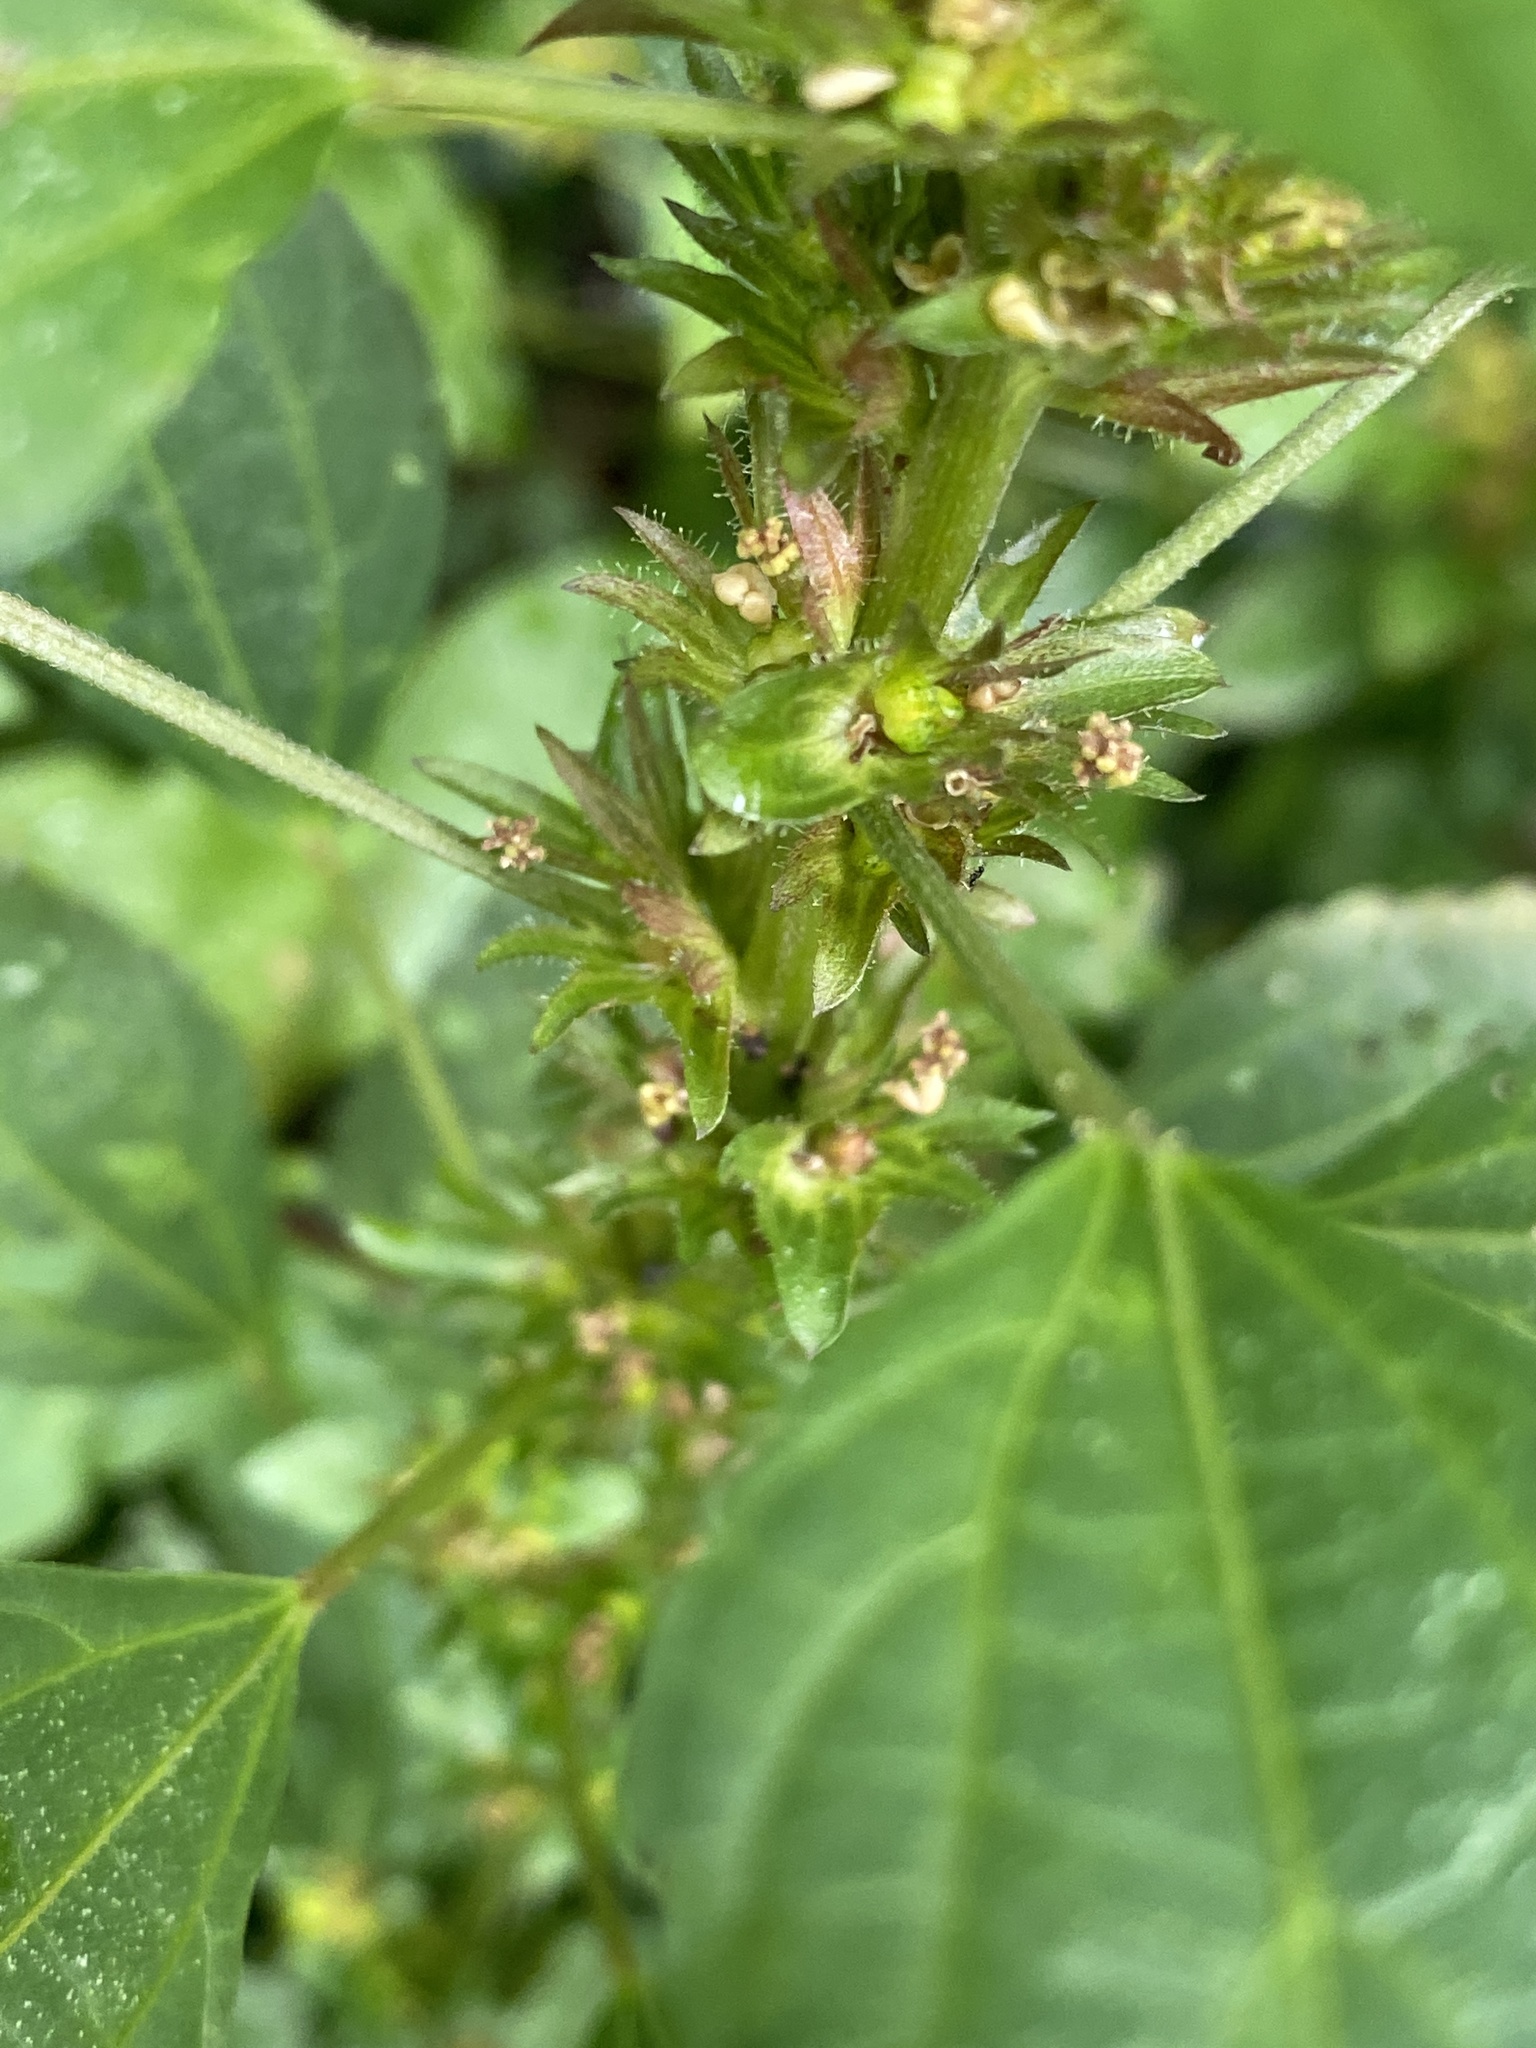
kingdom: Plantae
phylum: Tracheophyta
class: Magnoliopsida
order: Malpighiales
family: Euphorbiaceae
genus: Acalypha
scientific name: Acalypha rhomboidea
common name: Rhombic copperleaf
